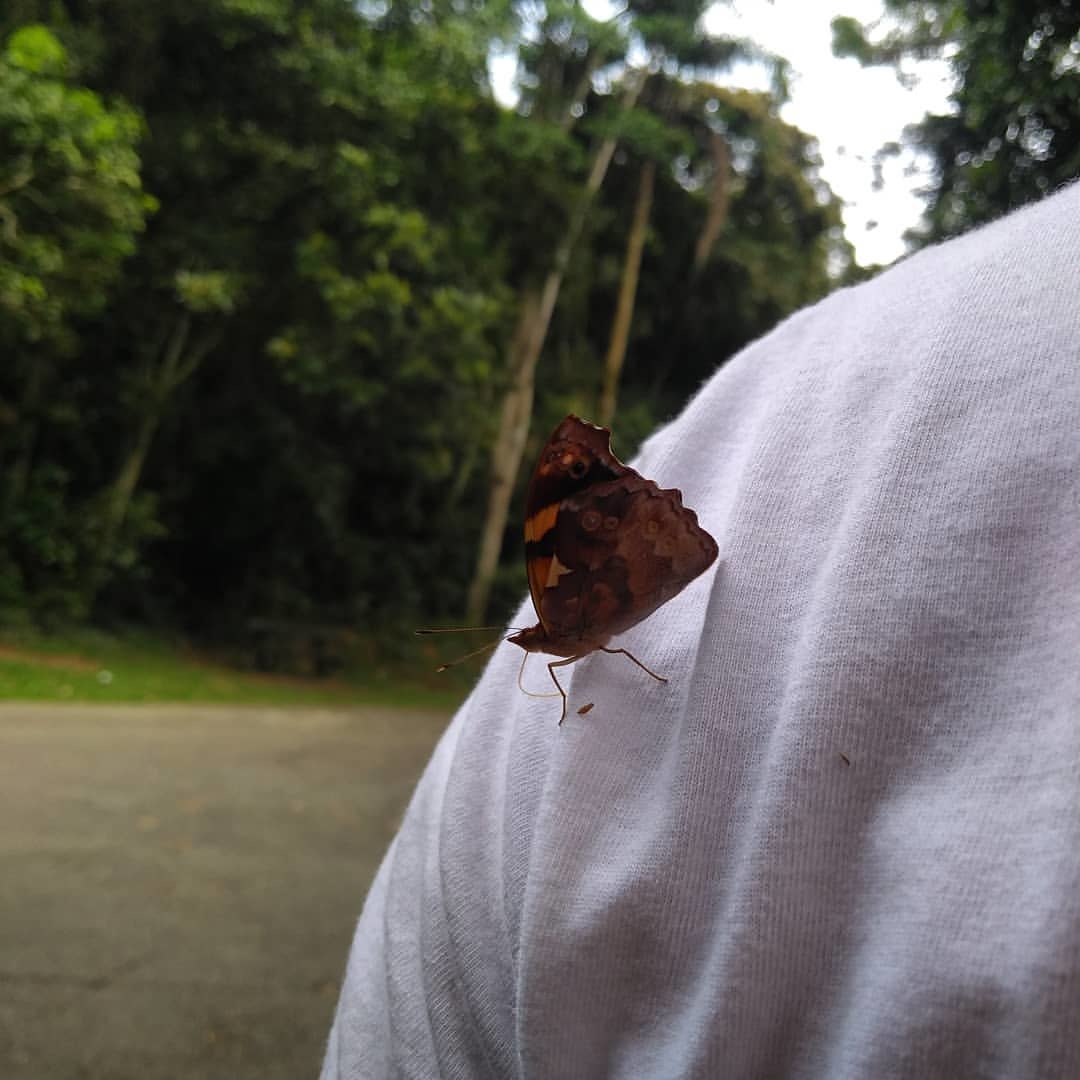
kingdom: Animalia
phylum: Arthropoda
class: Insecta
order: Lepidoptera
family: Nymphalidae
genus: Epiphile
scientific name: Epiphile orea
